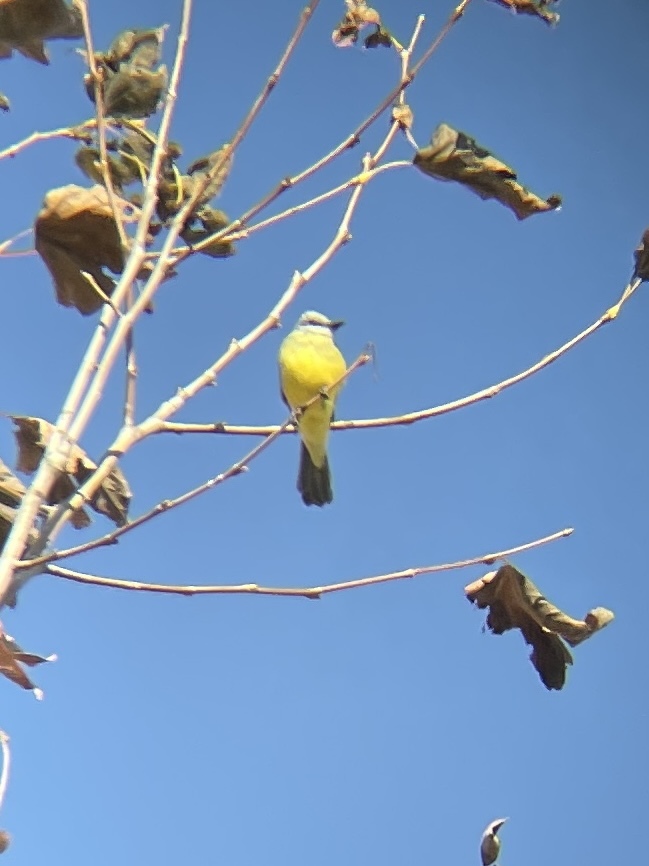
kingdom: Animalia
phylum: Chordata
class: Aves
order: Passeriformes
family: Tyrannidae
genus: Tyrannus
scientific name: Tyrannus melancholicus
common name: Tropical kingbird
